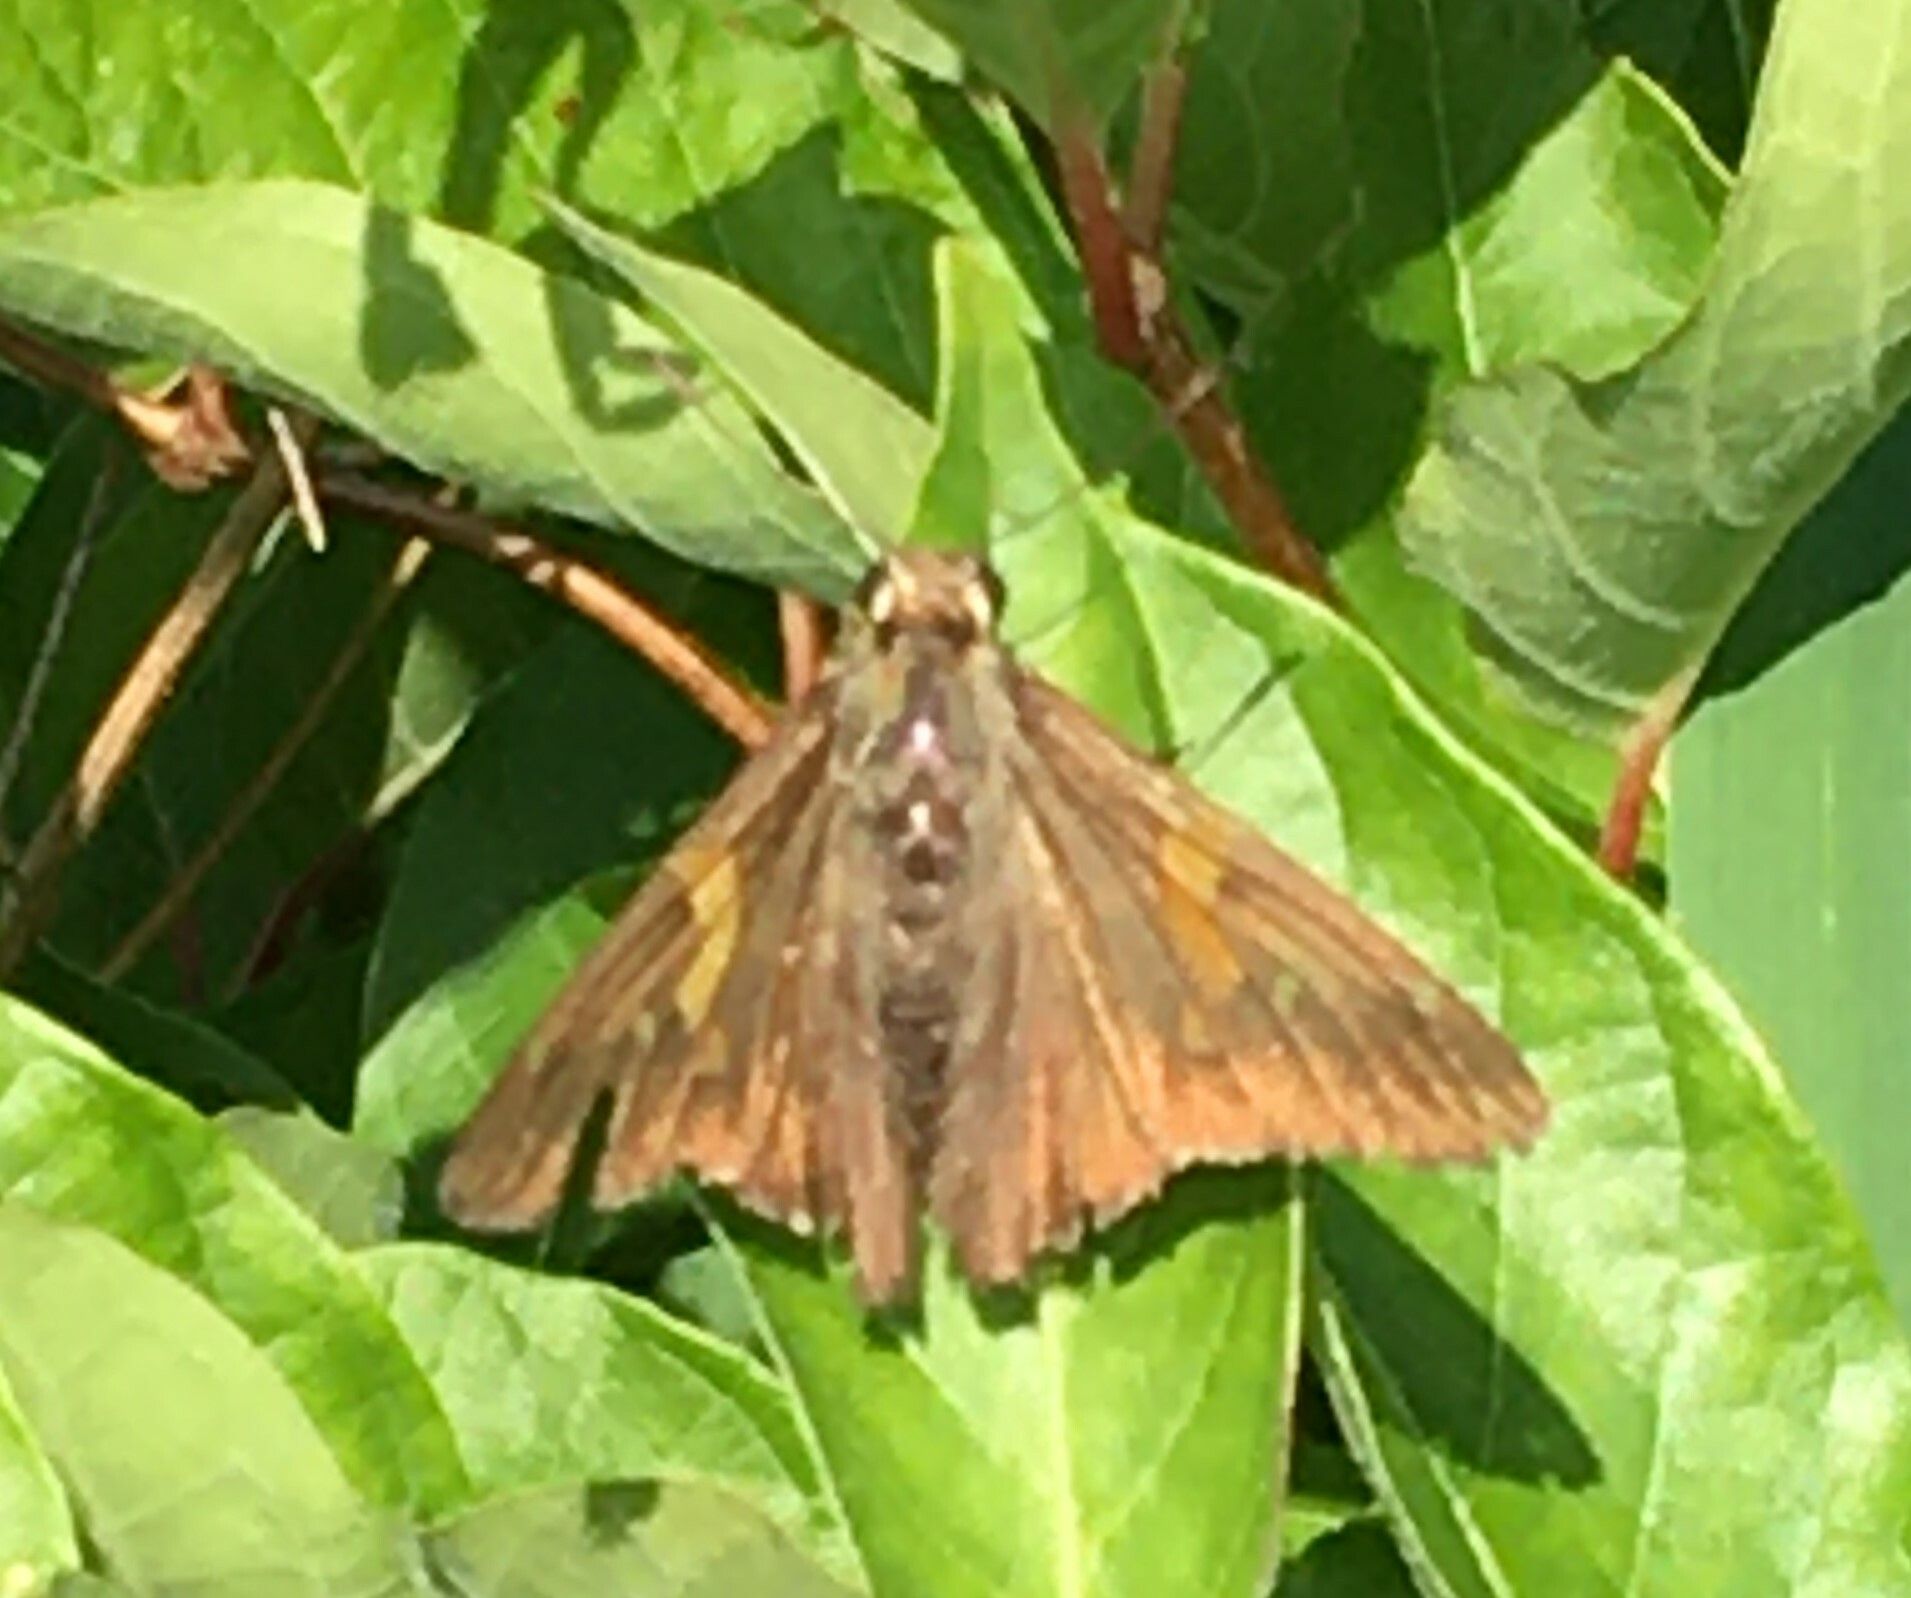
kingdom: Animalia
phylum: Arthropoda
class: Insecta
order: Lepidoptera
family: Hesperiidae
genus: Epargyreus
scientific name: Epargyreus clarus
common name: Silver-spotted skipper
